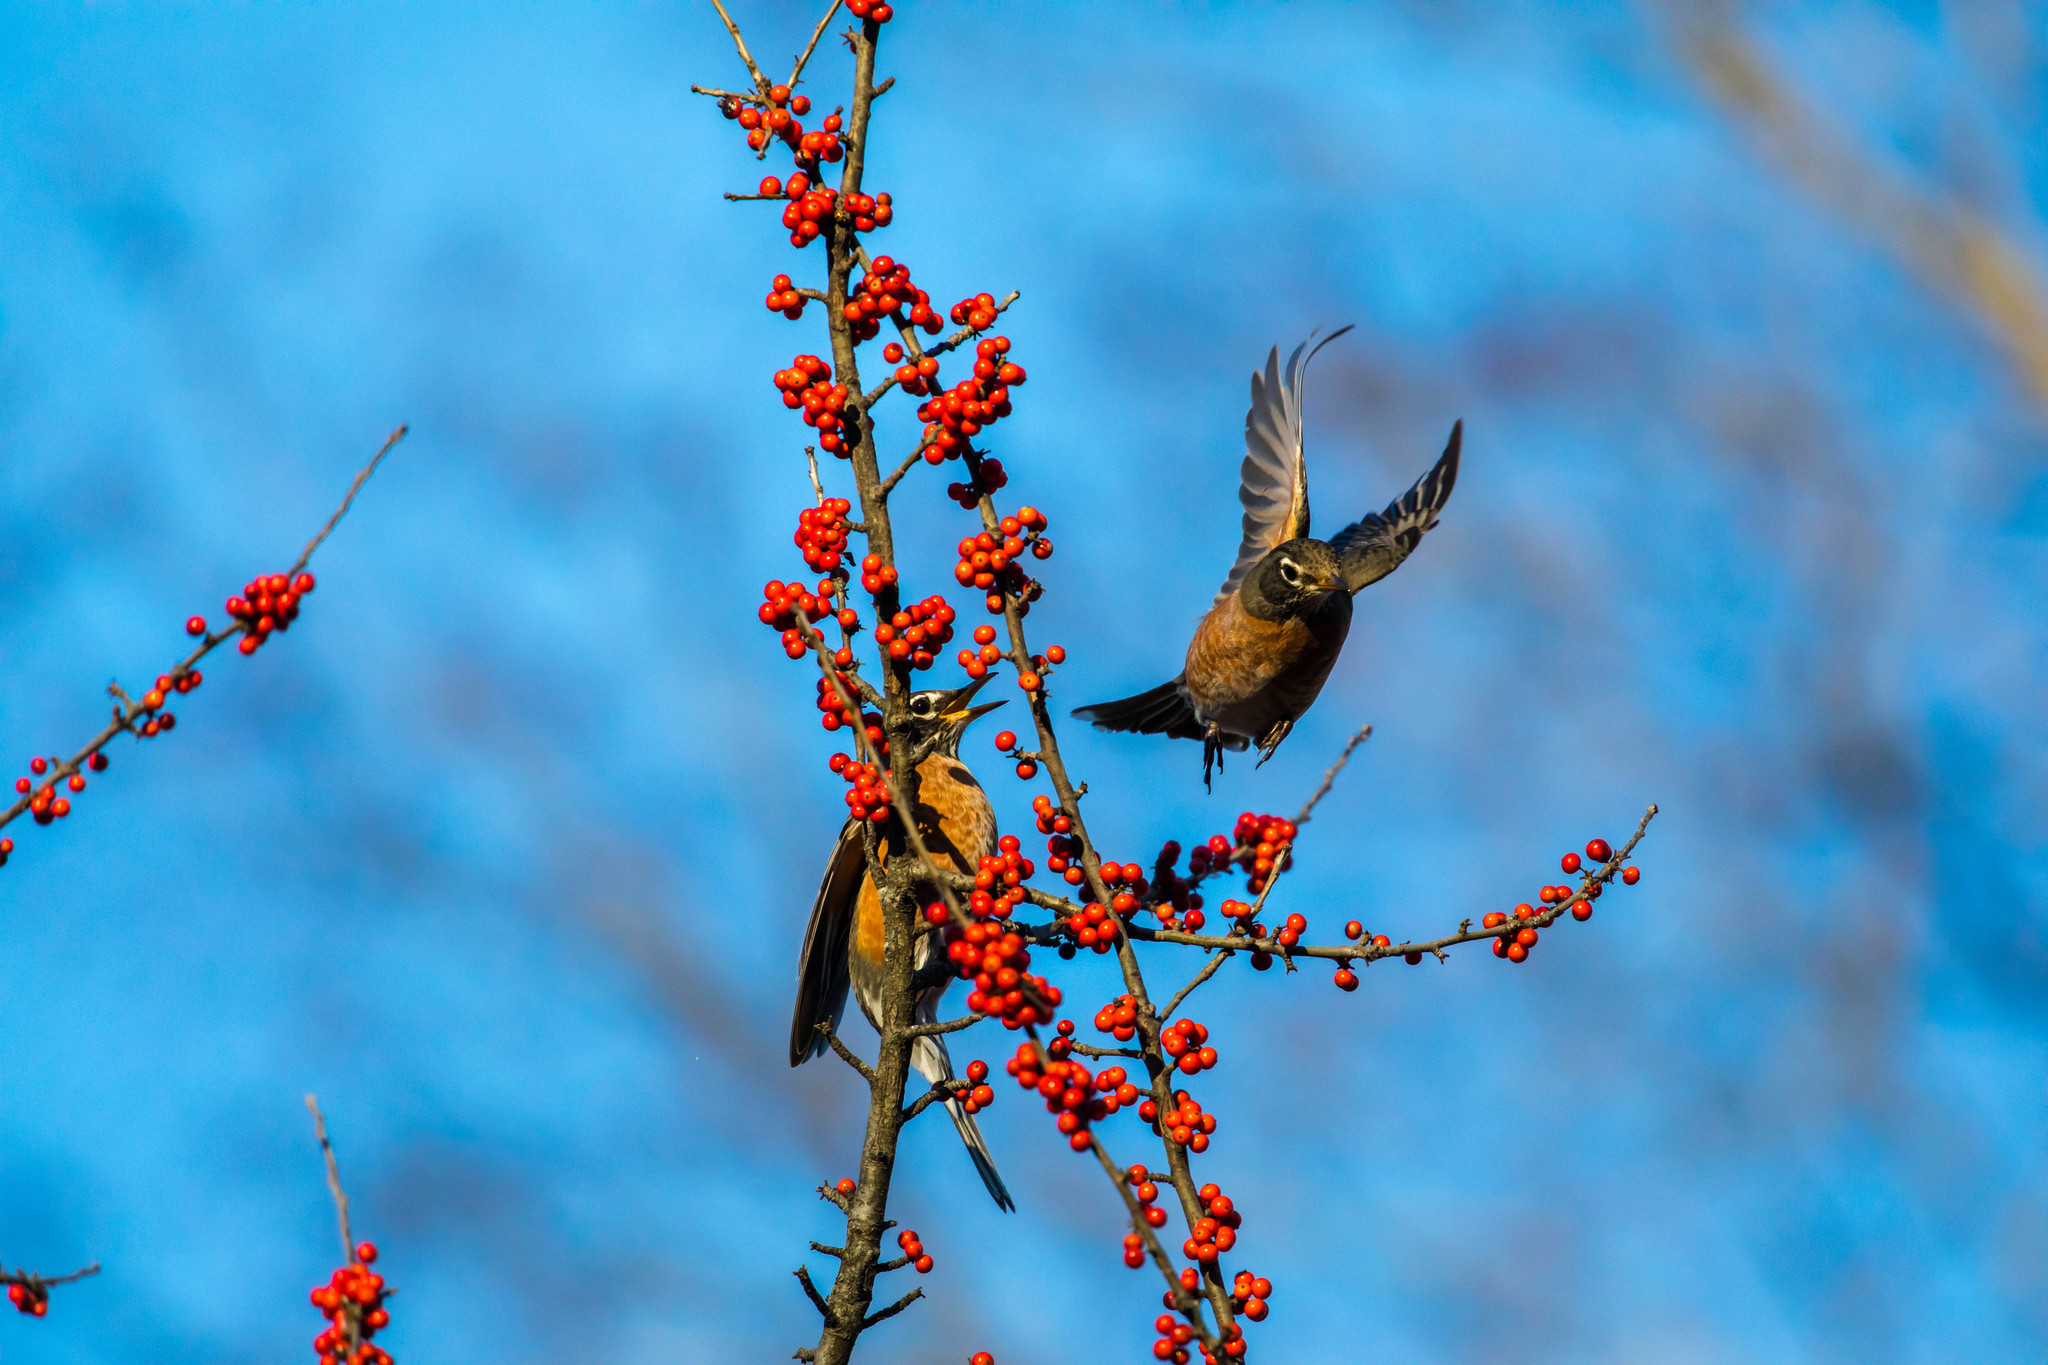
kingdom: Animalia
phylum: Chordata
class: Aves
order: Passeriformes
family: Turdidae
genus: Turdus
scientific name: Turdus migratorius
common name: American robin
